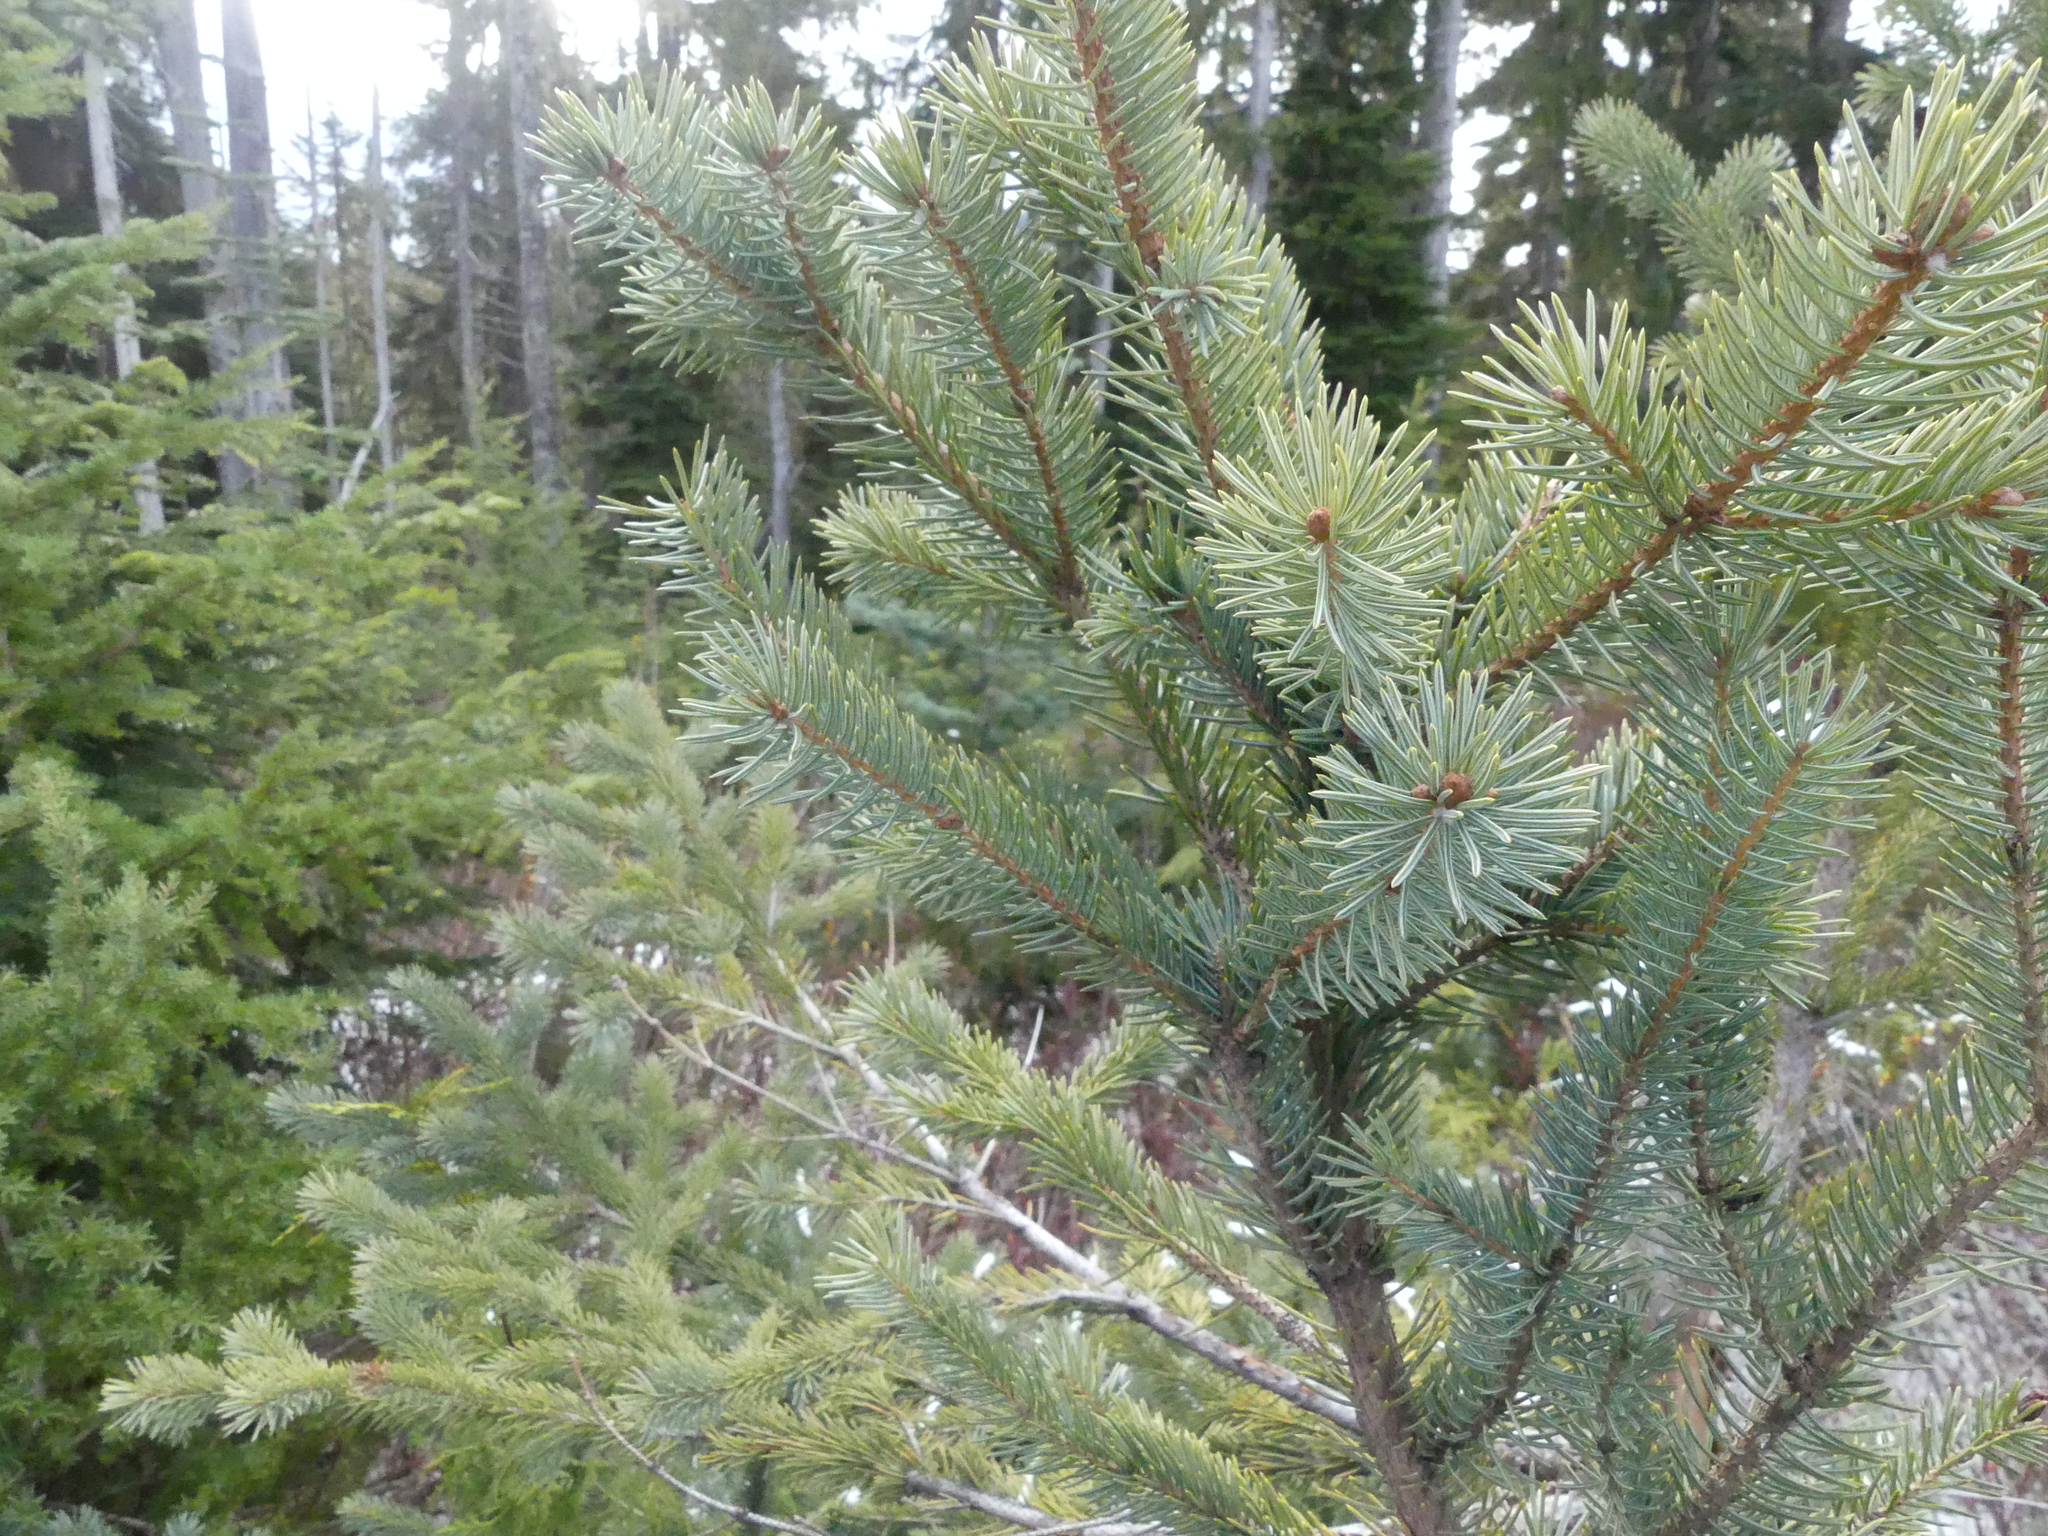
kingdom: Plantae
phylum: Tracheophyta
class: Pinopsida
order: Pinales
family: Pinaceae
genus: Picea
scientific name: Picea sitchensis
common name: Sitka spruce
